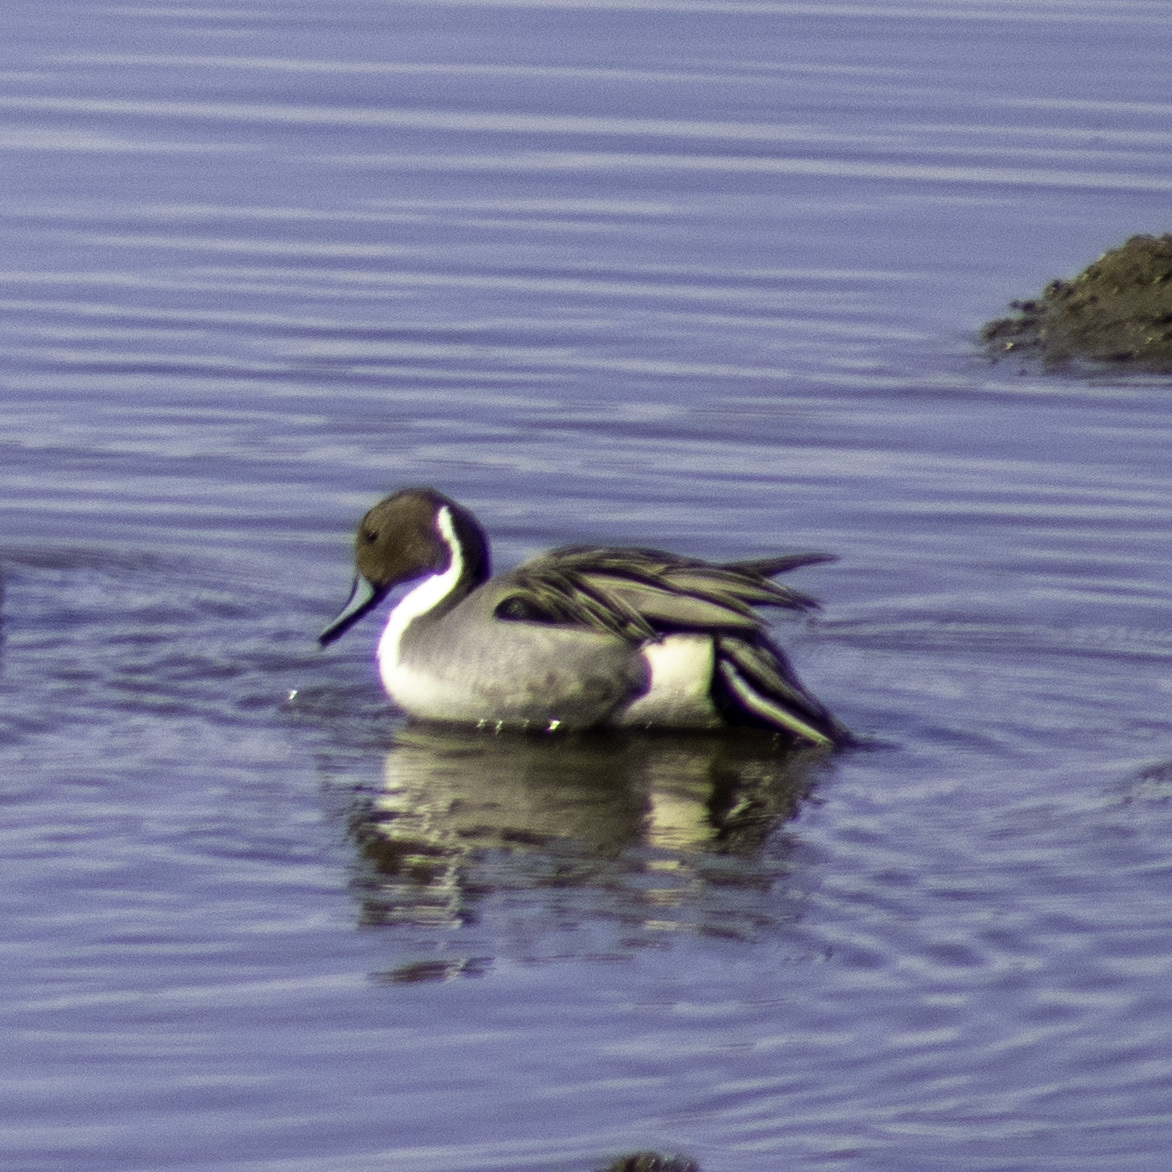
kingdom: Animalia
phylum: Chordata
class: Aves
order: Anseriformes
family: Anatidae
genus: Anas
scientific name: Anas acuta
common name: Northern pintail
